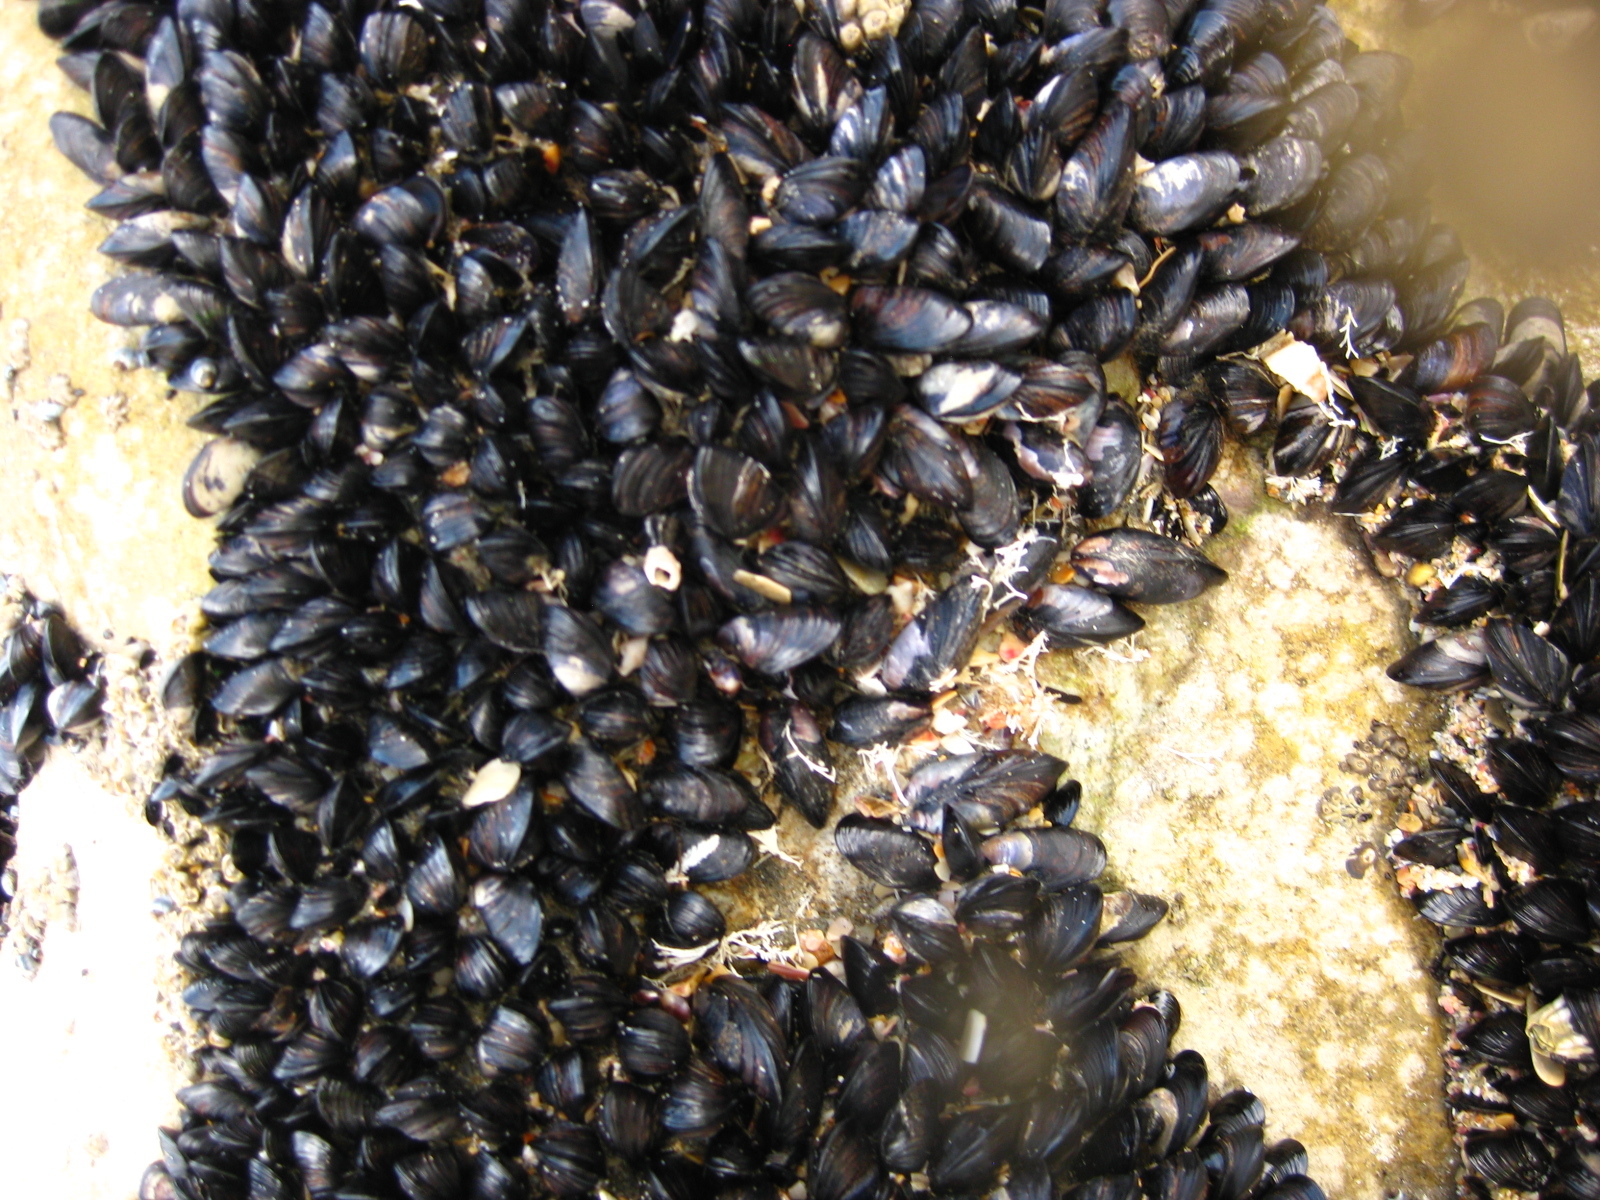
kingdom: Animalia
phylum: Mollusca
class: Bivalvia
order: Mytilida
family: Mytilidae
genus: Xenostrobus
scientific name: Xenostrobus neozelanicus
